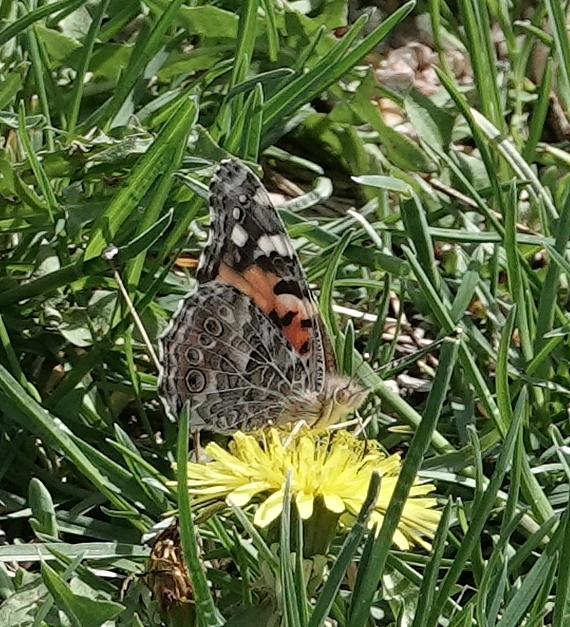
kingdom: Animalia
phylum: Arthropoda
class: Insecta
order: Lepidoptera
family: Nymphalidae
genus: Vanessa
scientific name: Vanessa cardui
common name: Painted lady
